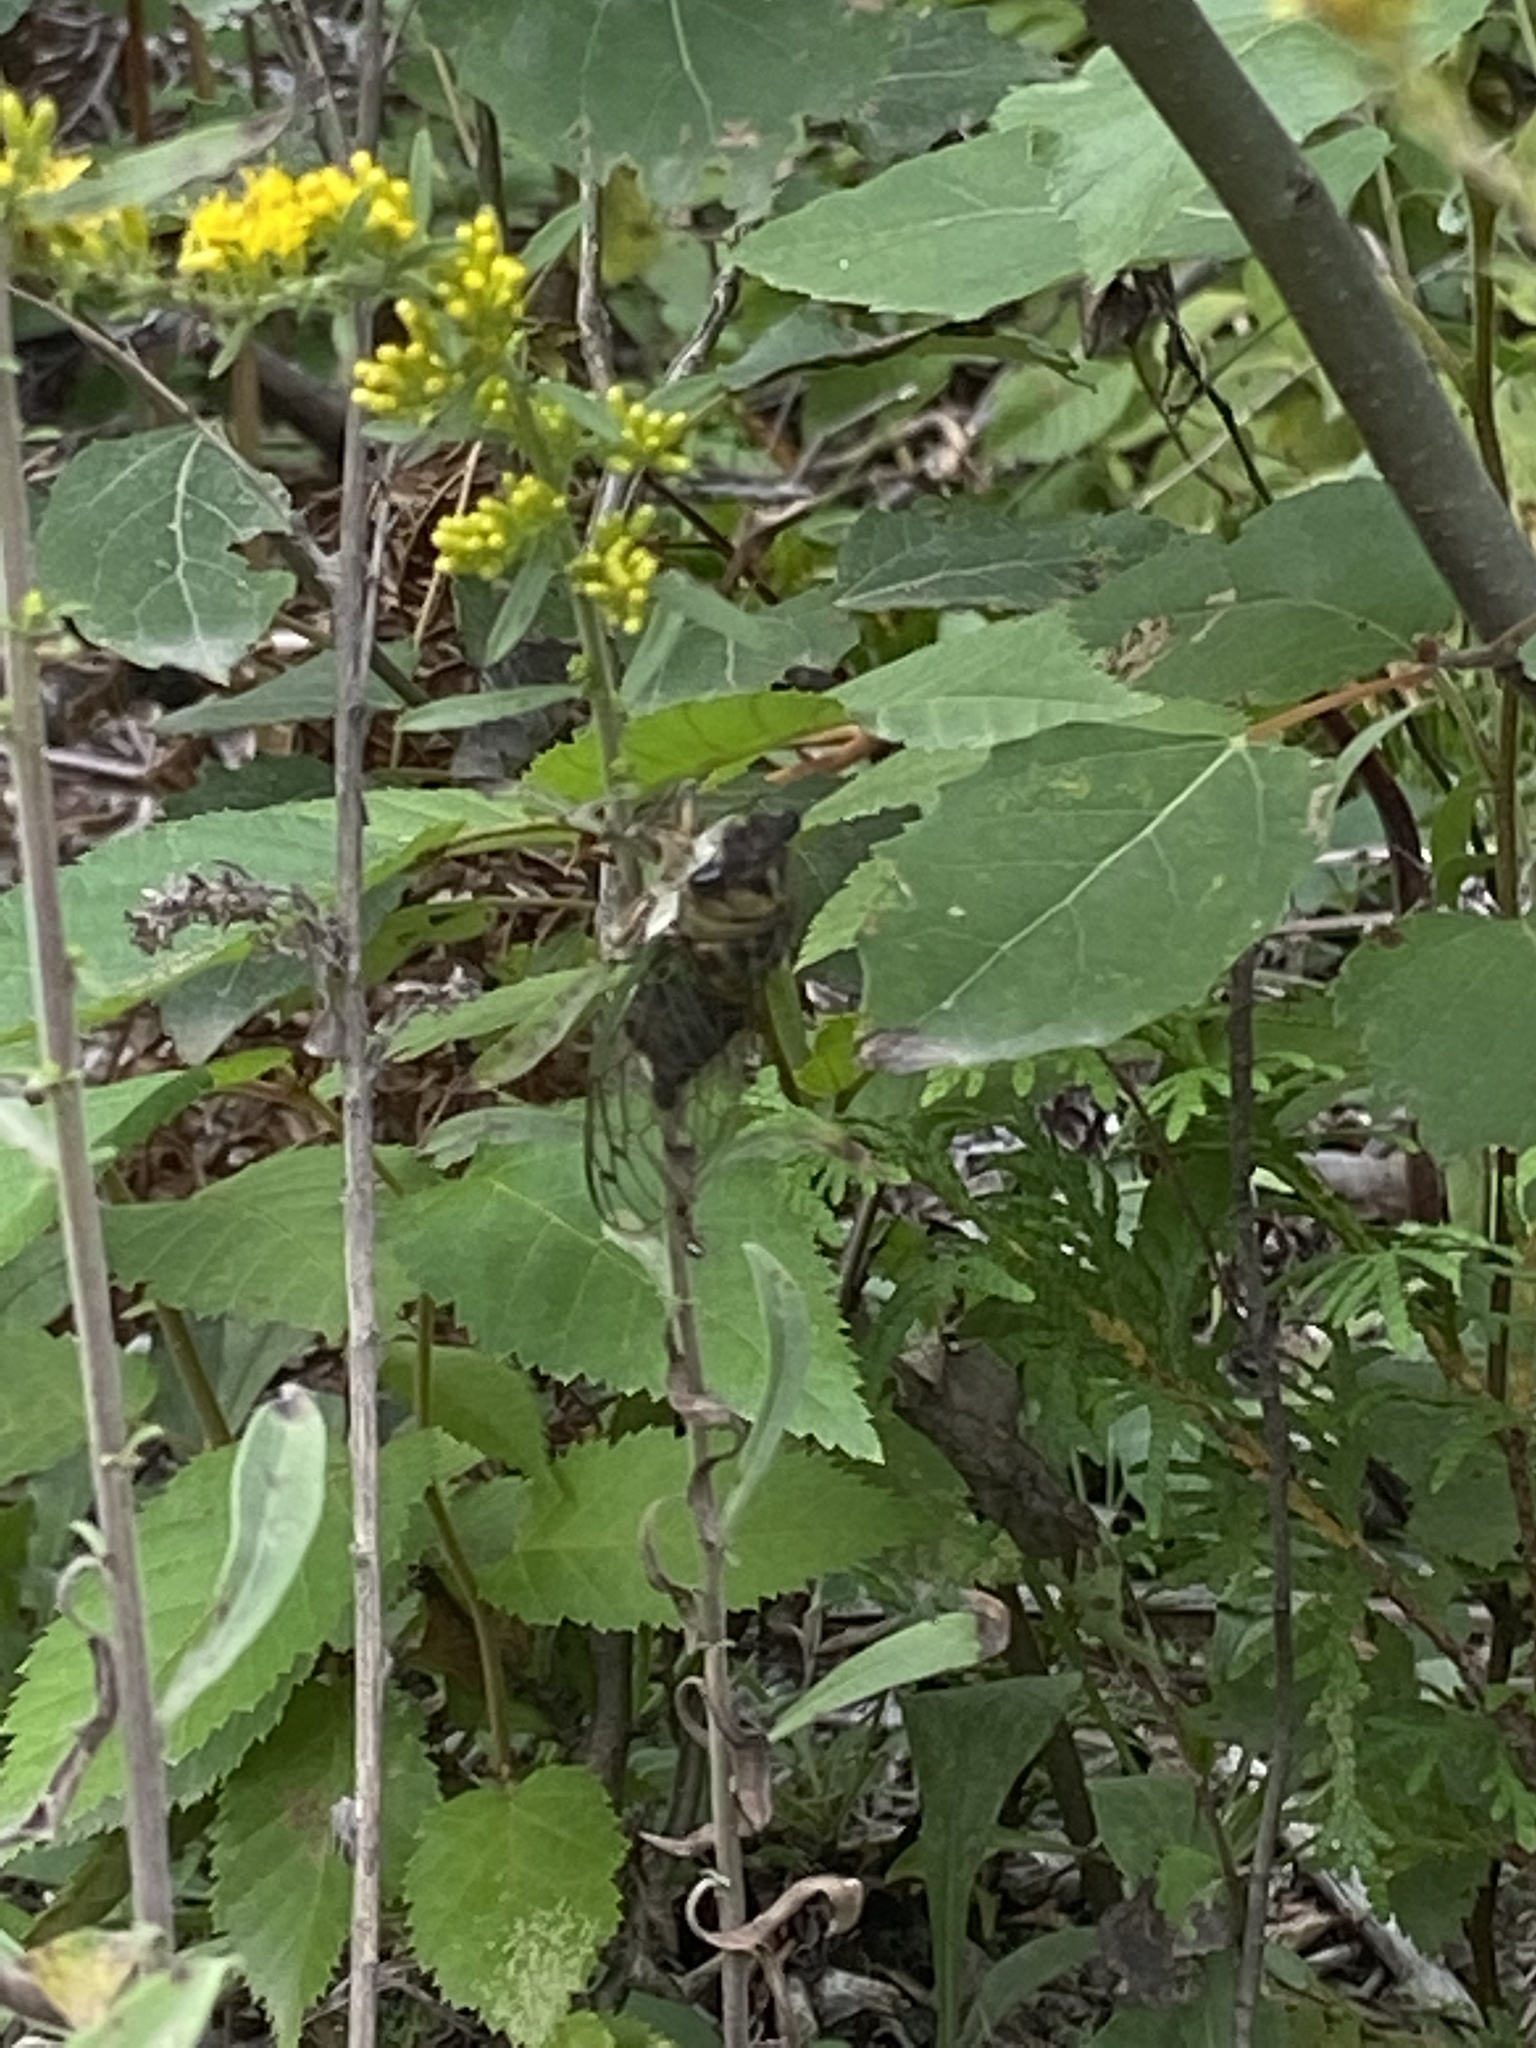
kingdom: Animalia
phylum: Arthropoda
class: Insecta
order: Hemiptera
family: Cicadidae
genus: Neotibicen
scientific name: Neotibicen canicularis
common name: God-day cicada
